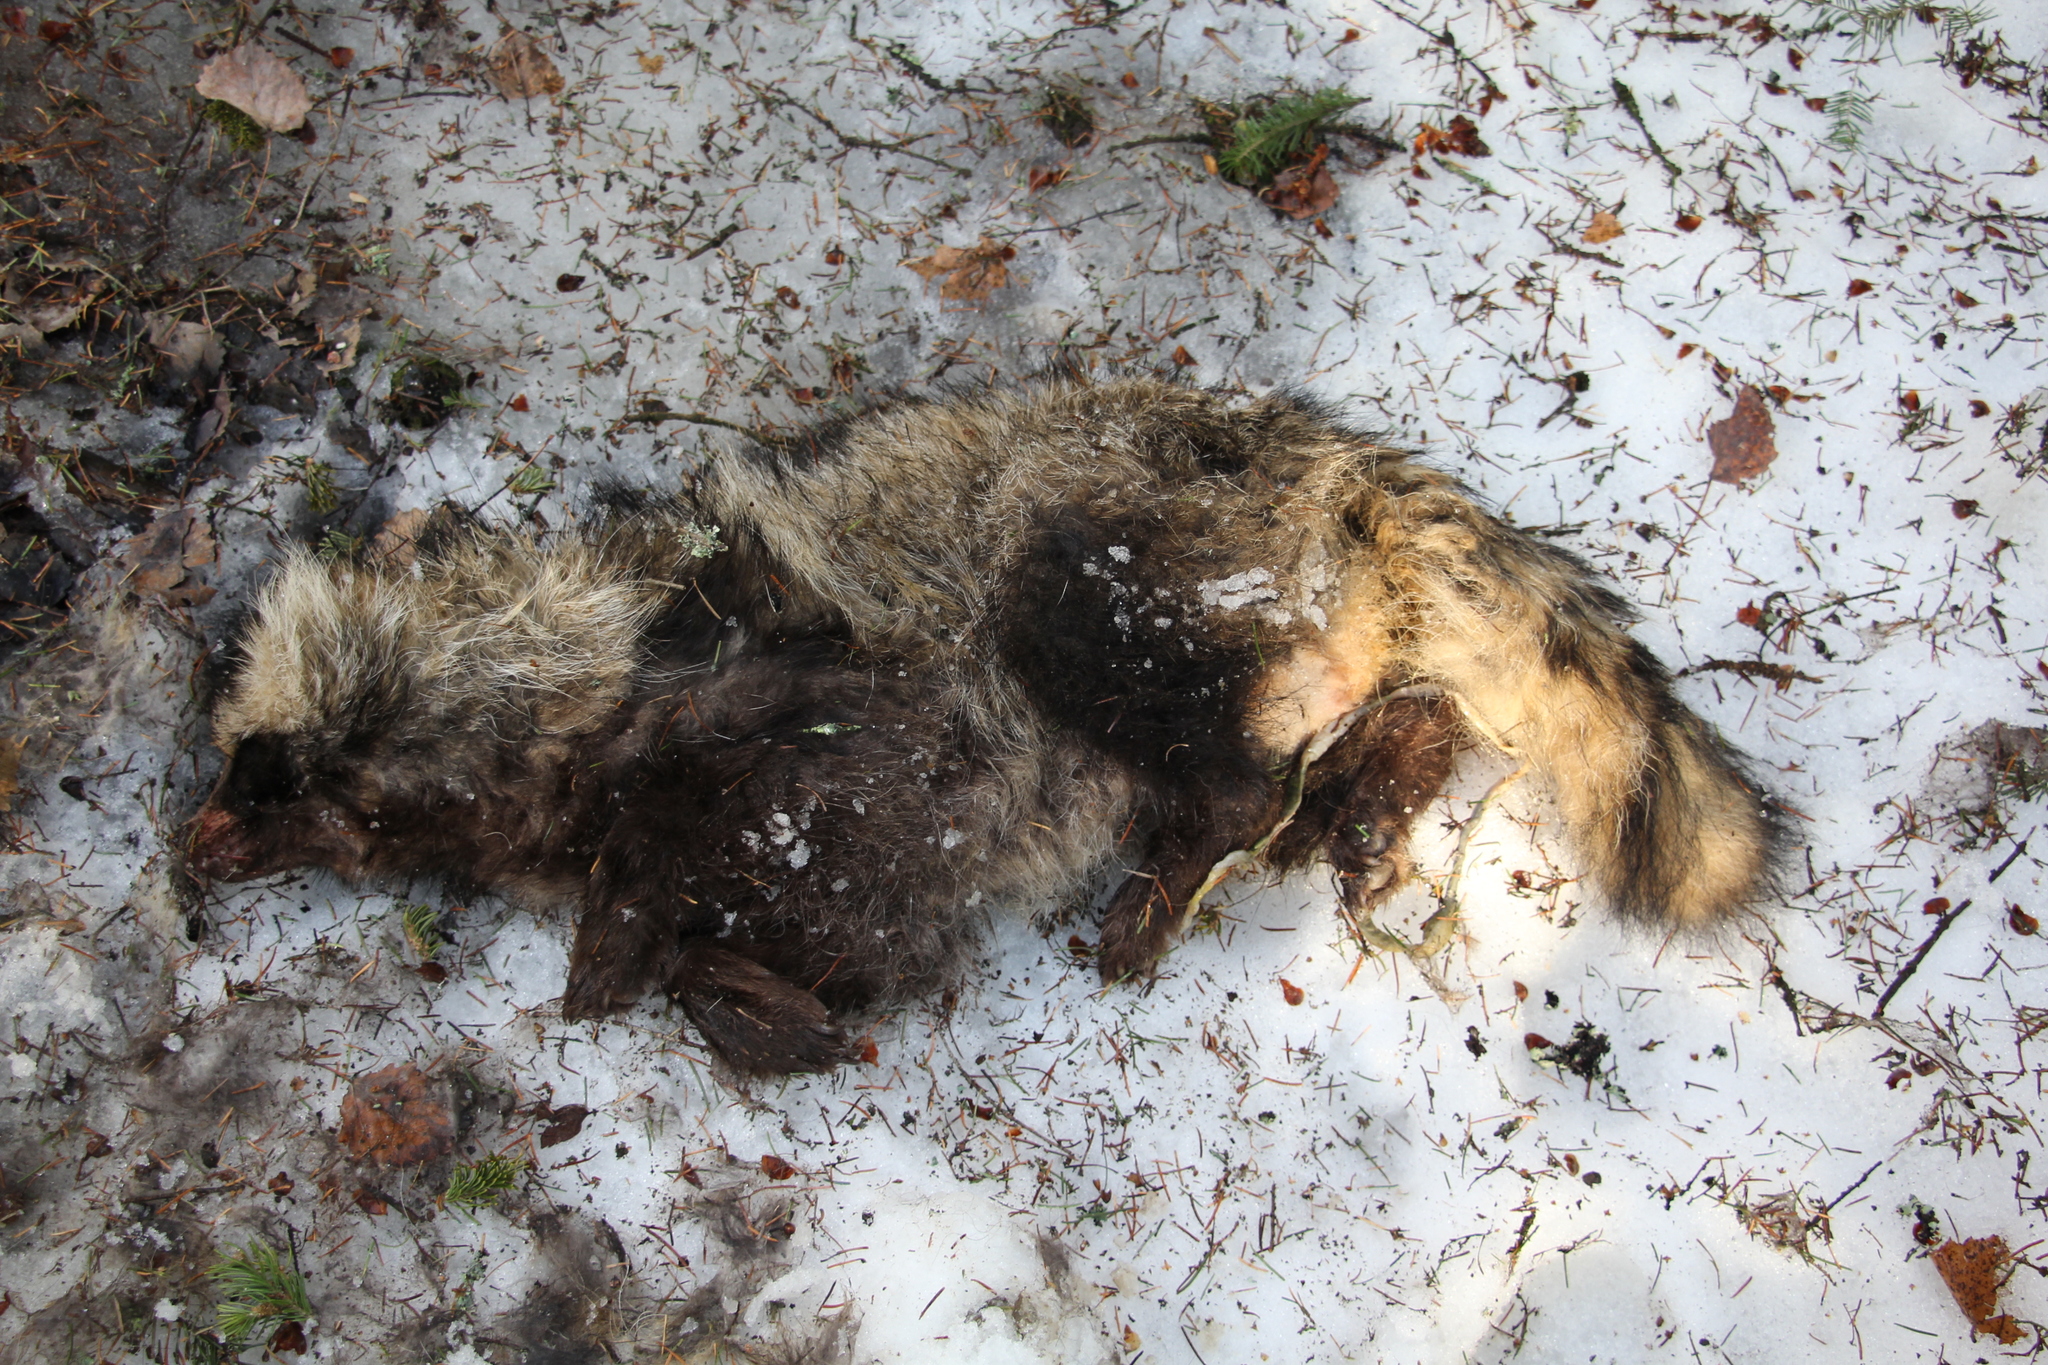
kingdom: Animalia
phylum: Chordata
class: Mammalia
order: Carnivora
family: Canidae
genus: Nyctereutes
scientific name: Nyctereutes procyonoides
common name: Raccoon dog
